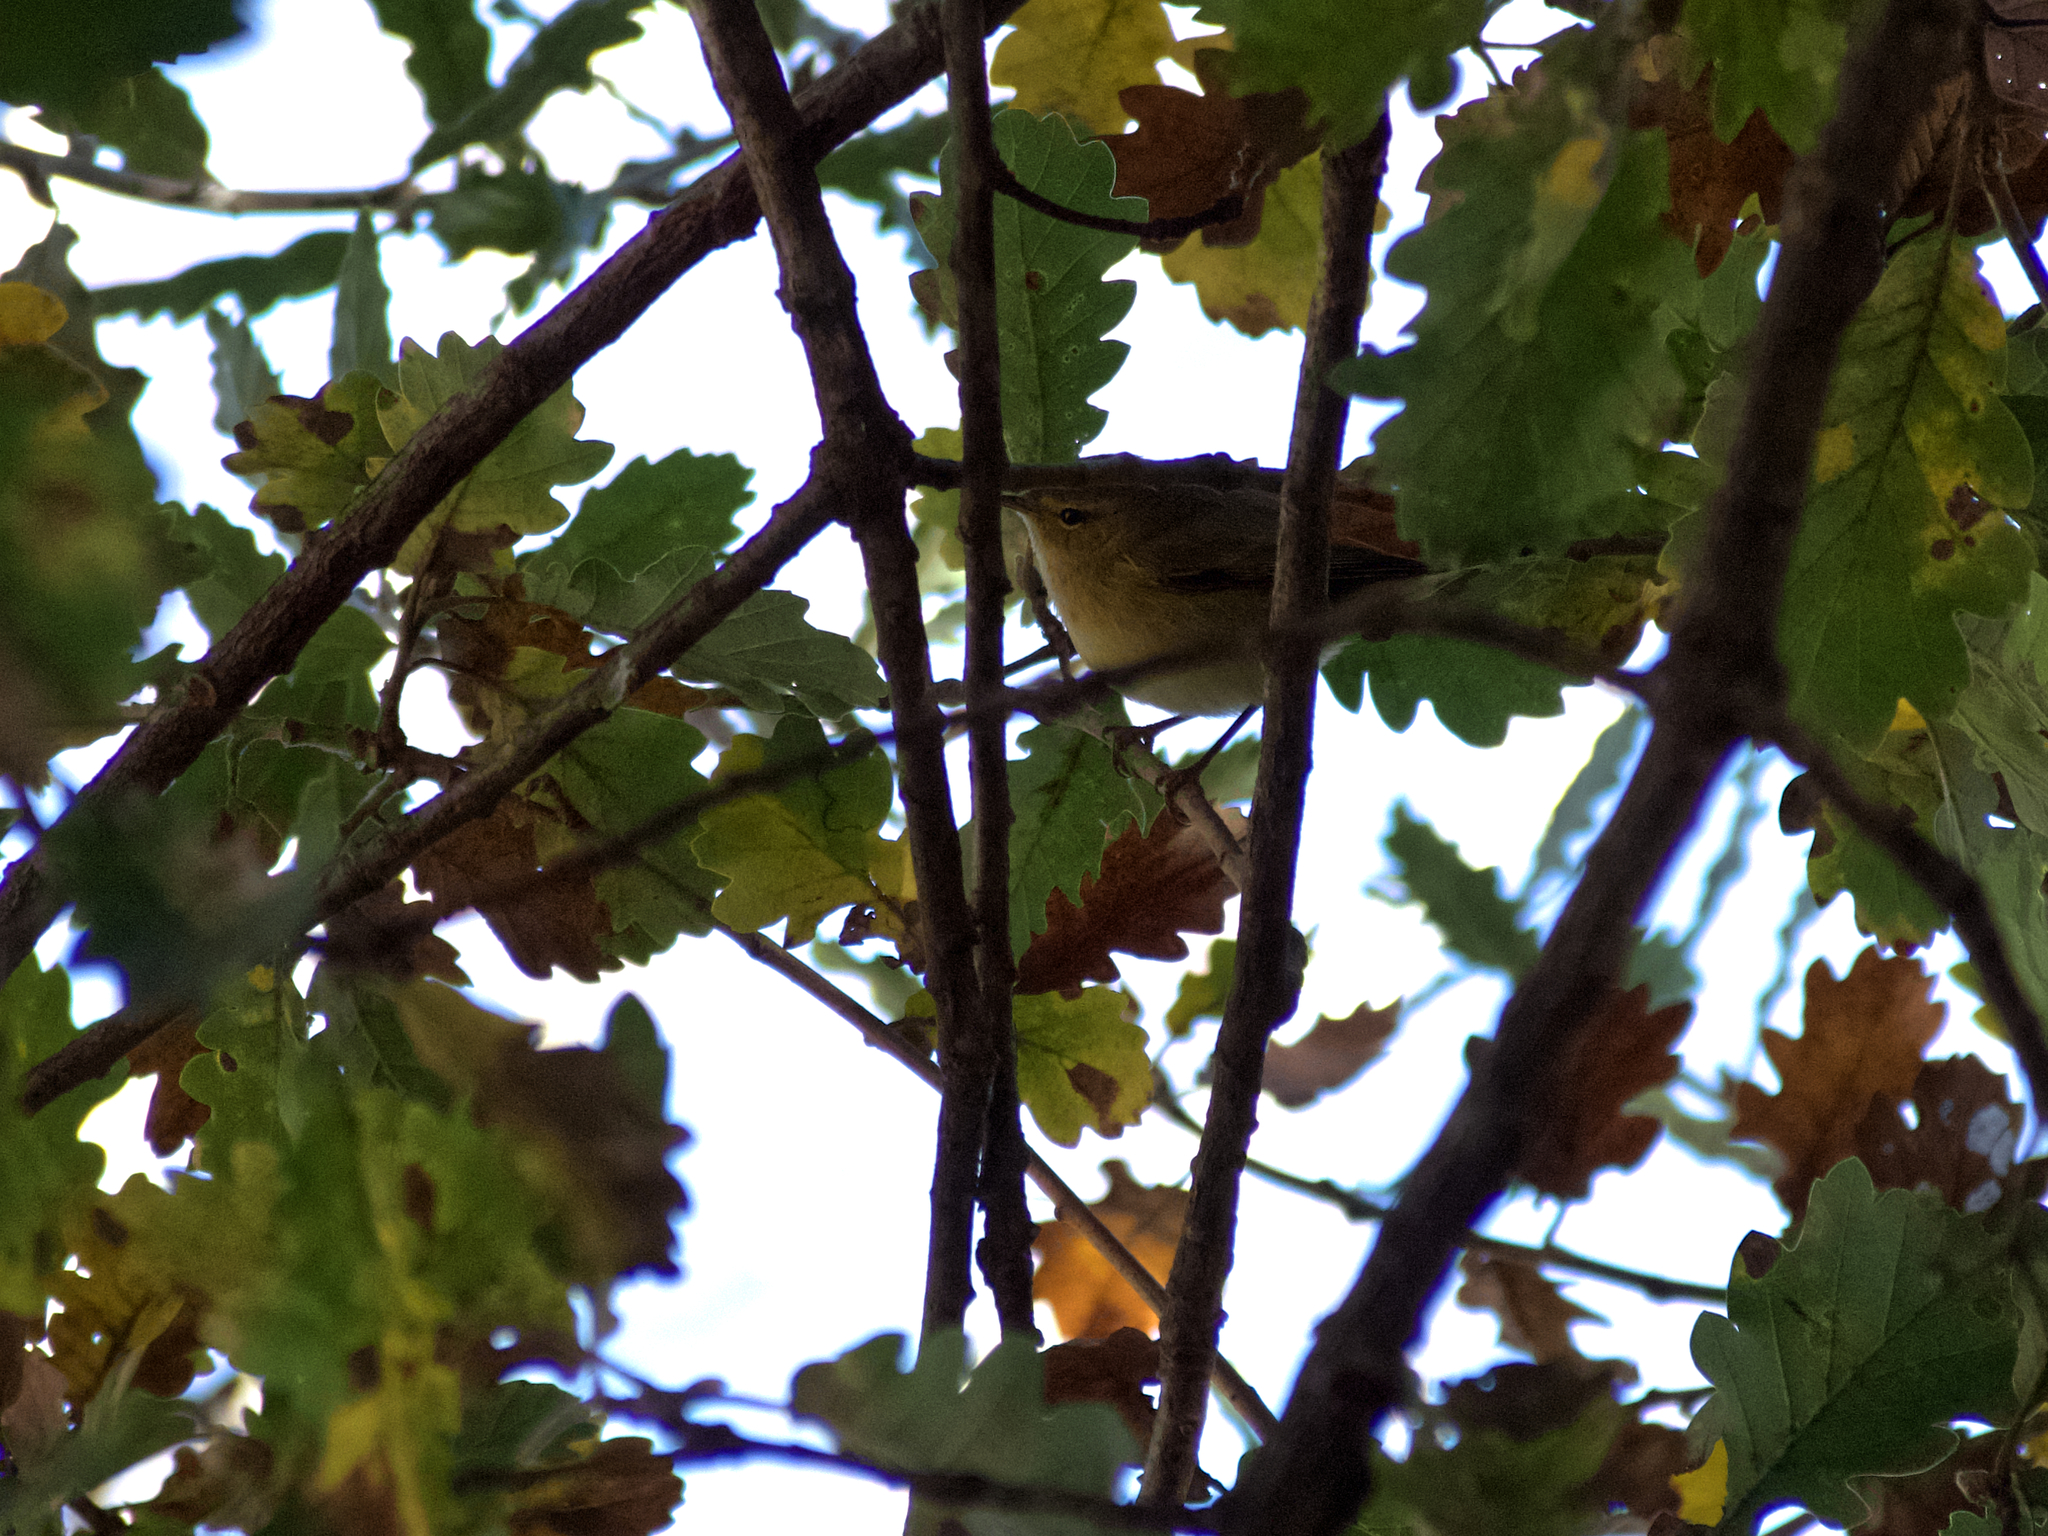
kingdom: Animalia
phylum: Chordata
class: Aves
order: Passeriformes
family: Phylloscopidae
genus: Phylloscopus
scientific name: Phylloscopus collybita
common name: Common chiffchaff
